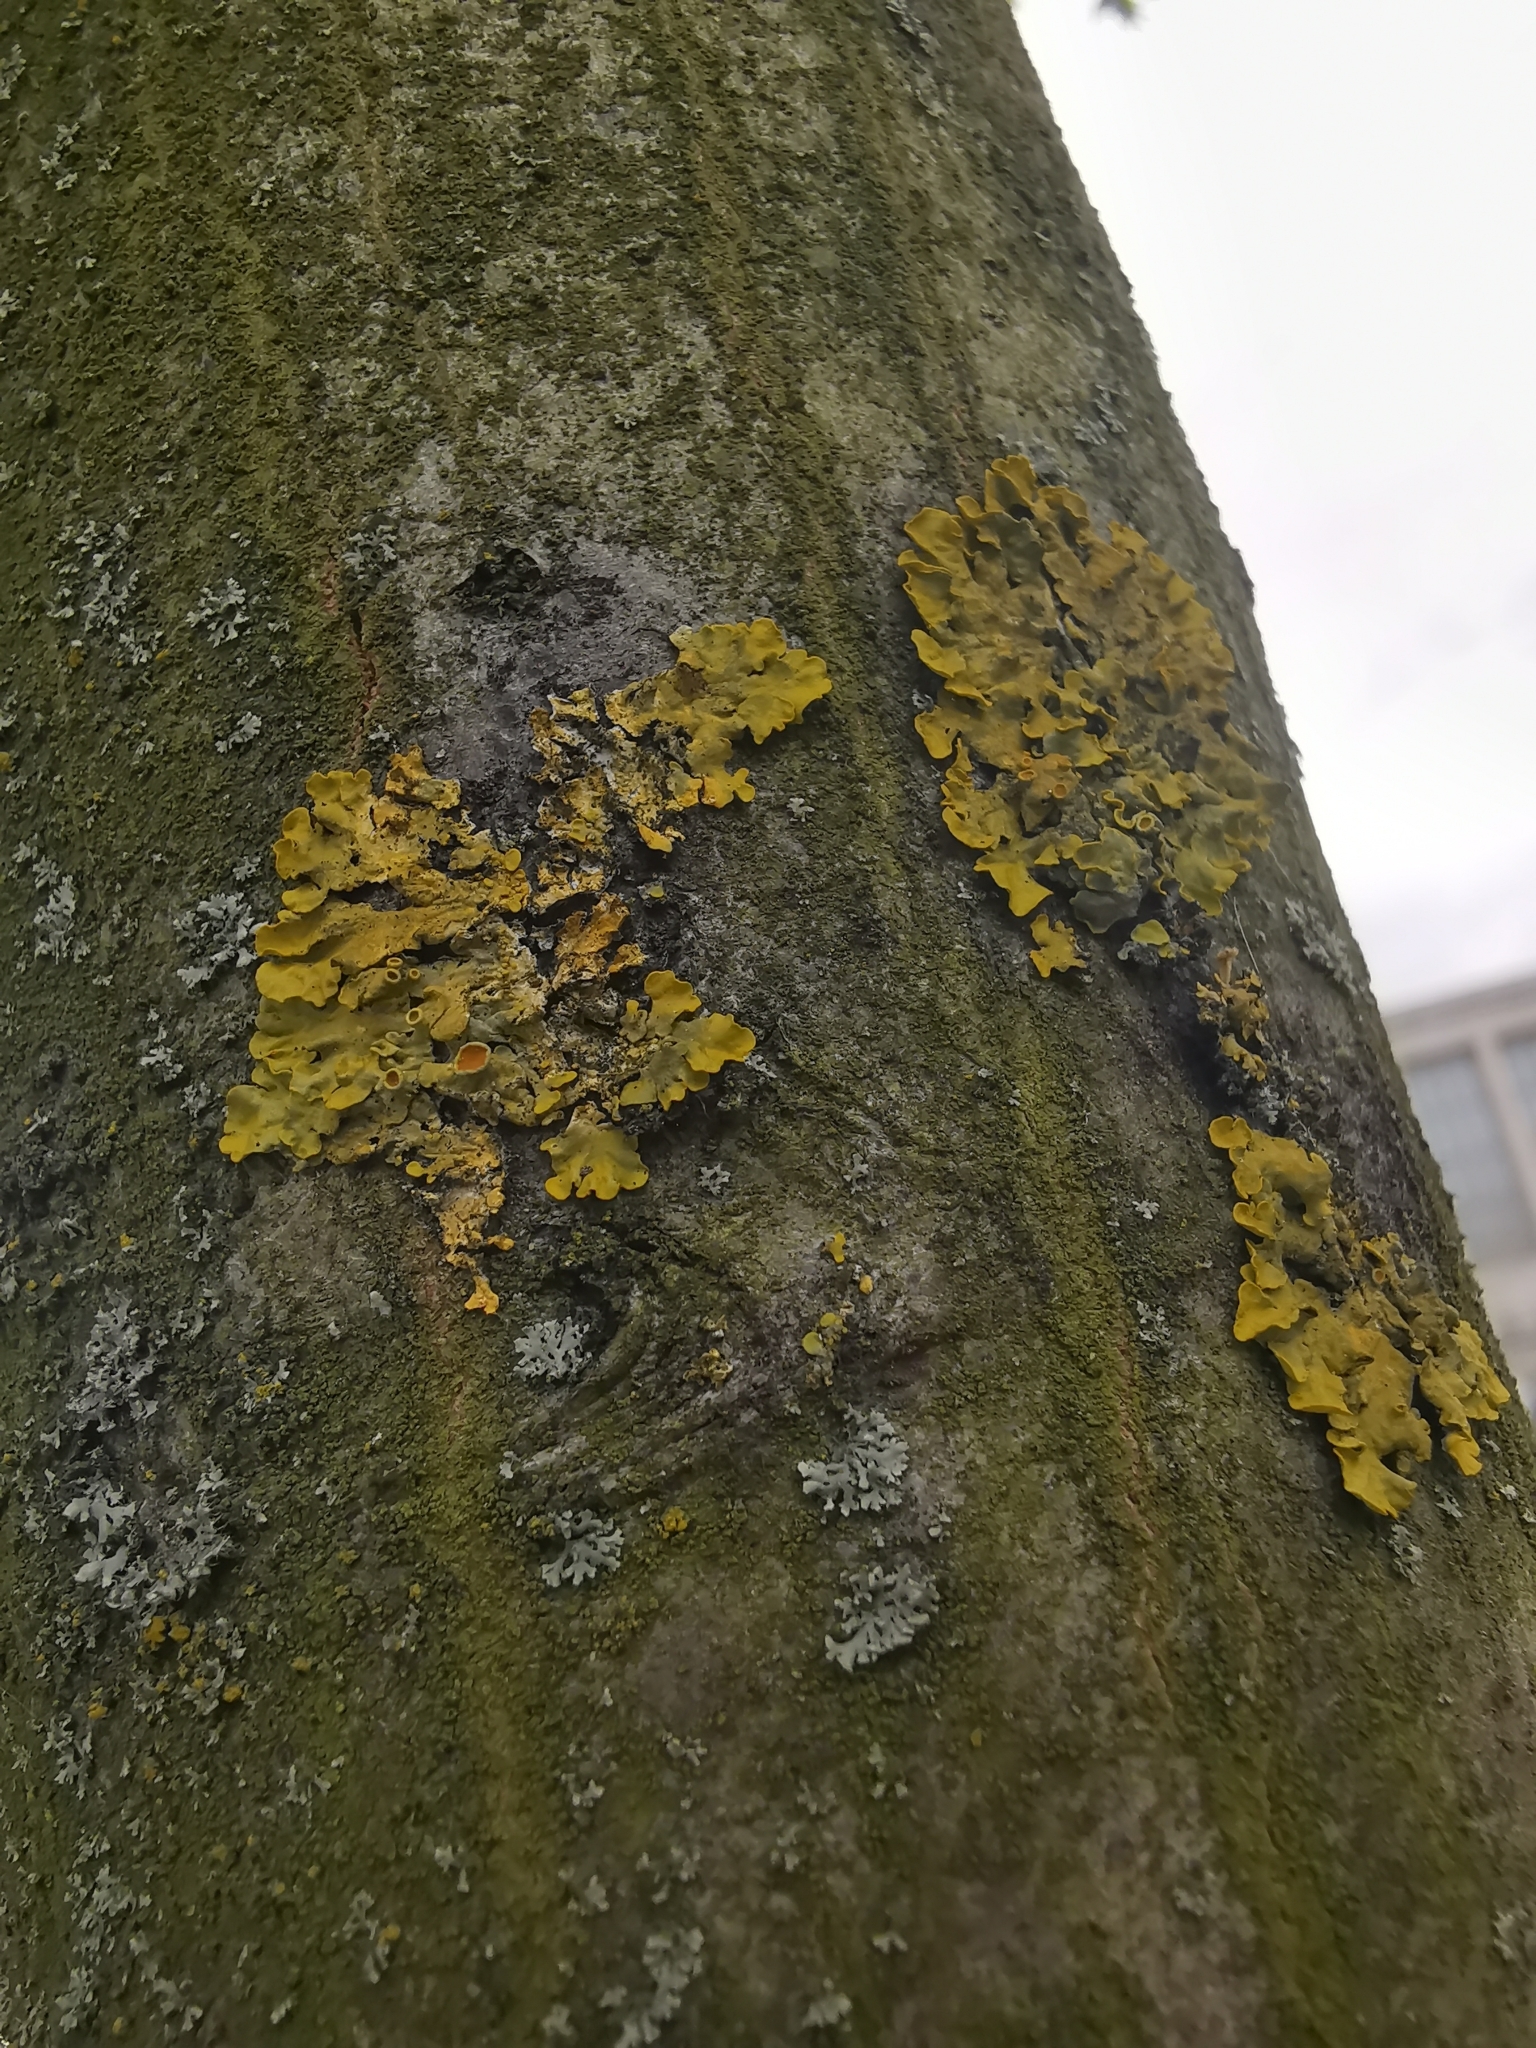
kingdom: Fungi
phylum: Ascomycota
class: Lecanoromycetes
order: Teloschistales
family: Teloschistaceae
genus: Xanthoria
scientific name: Xanthoria parietina
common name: Common orange lichen
